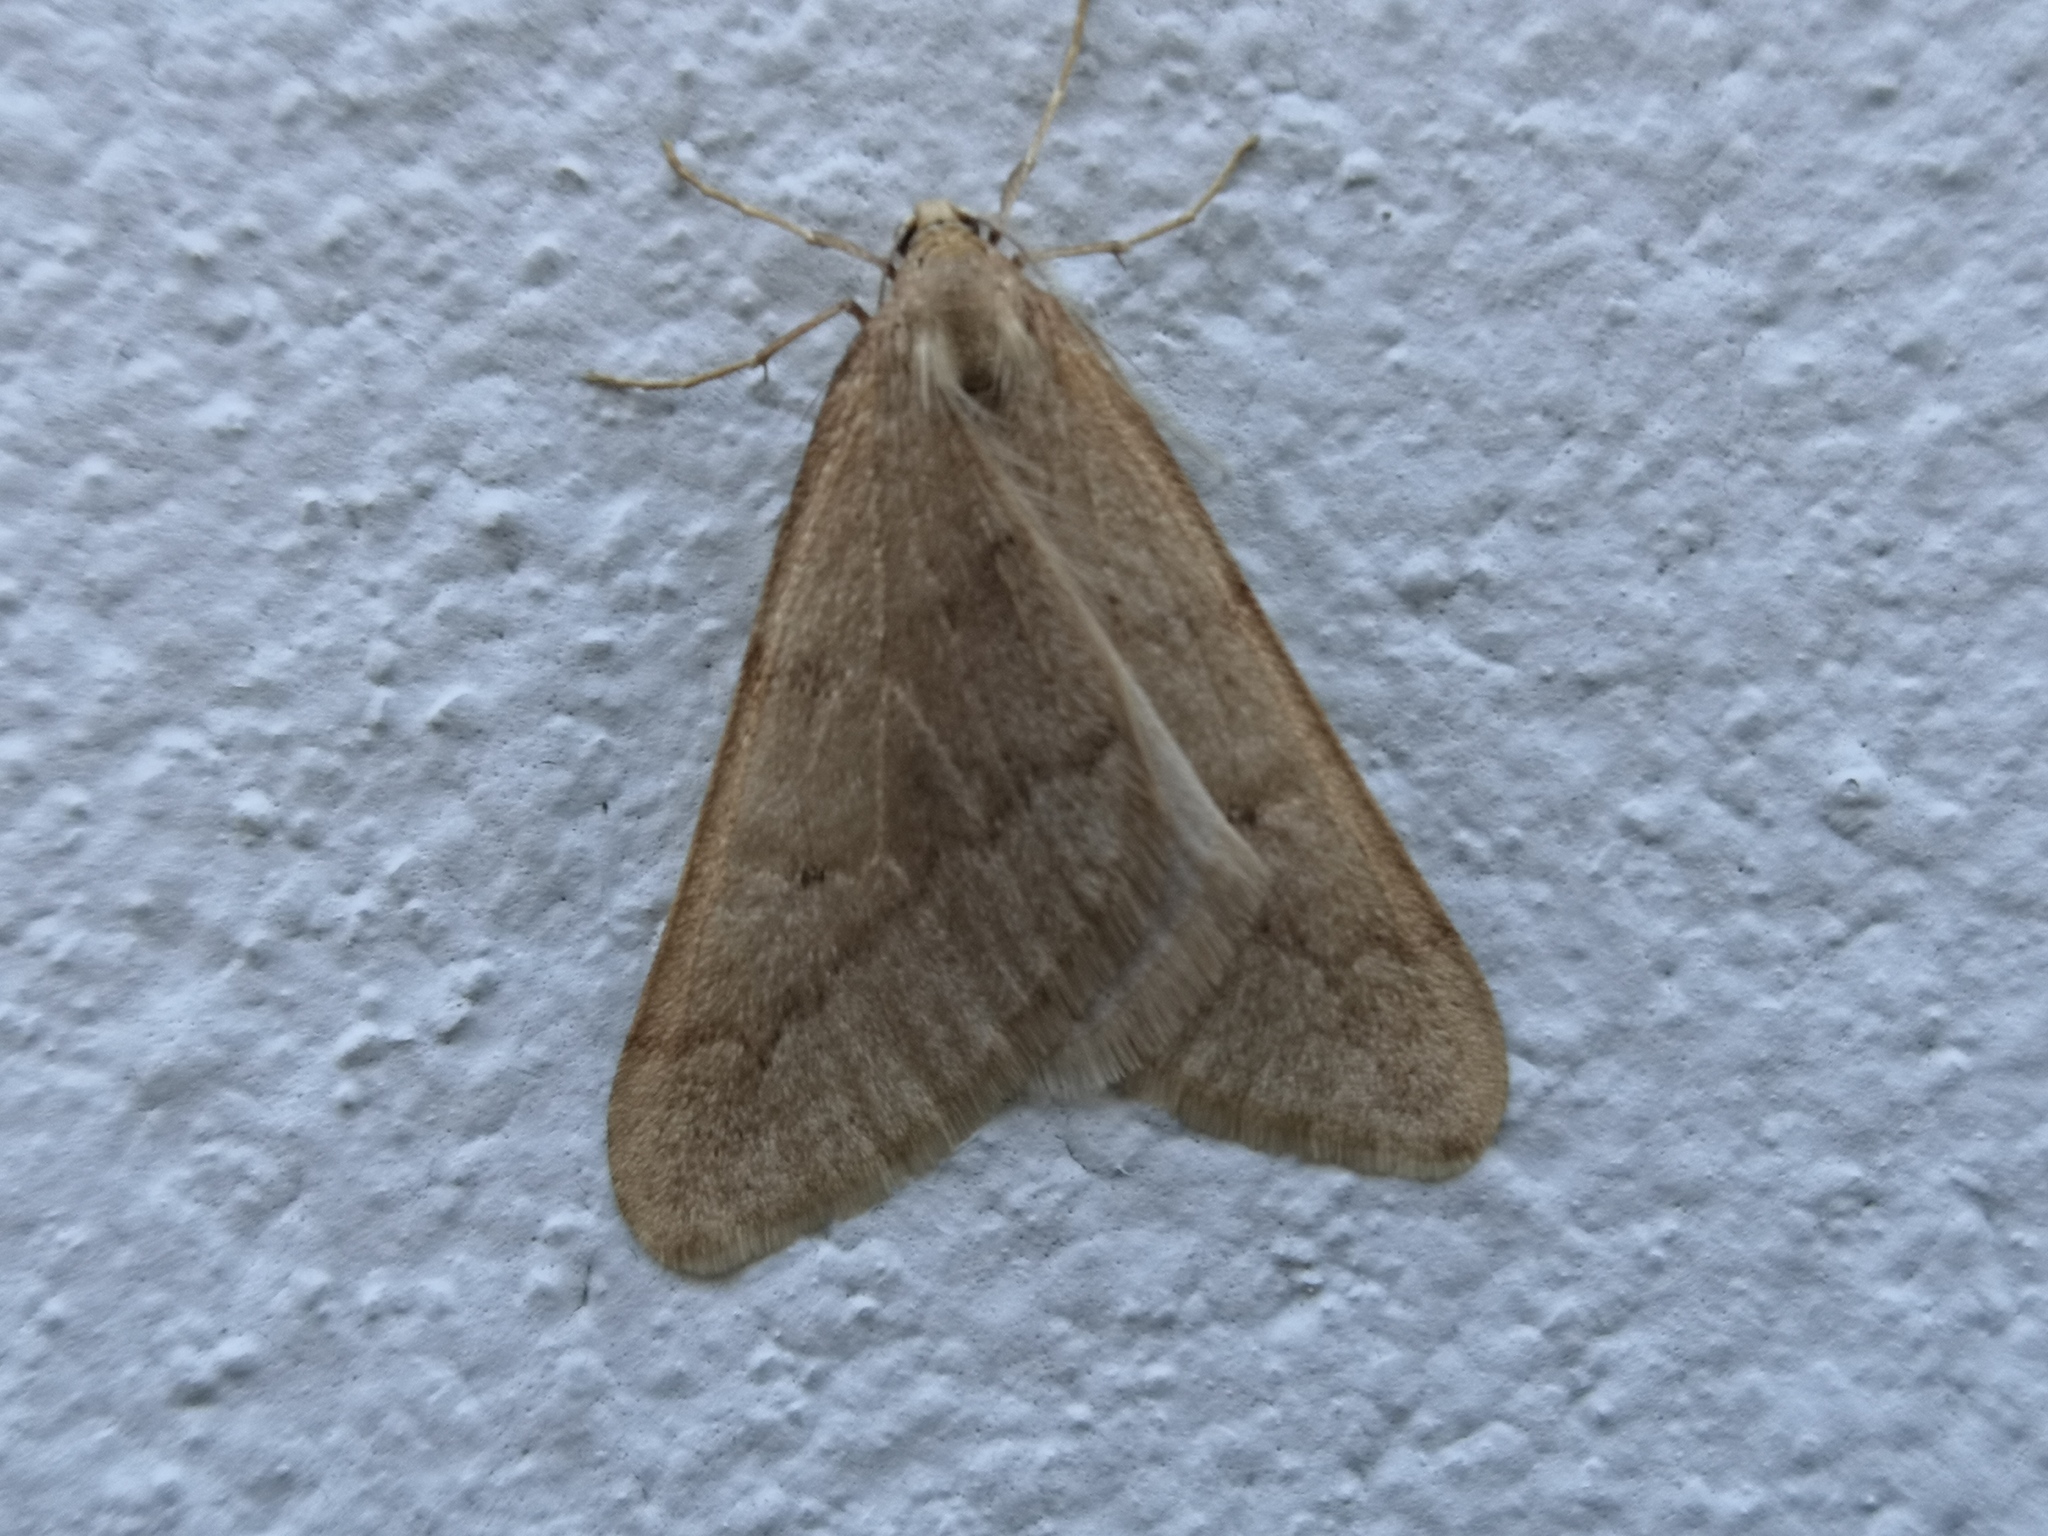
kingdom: Animalia
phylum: Arthropoda
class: Insecta
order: Lepidoptera
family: Geometridae
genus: Alsophila
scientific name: Alsophila aceraria
